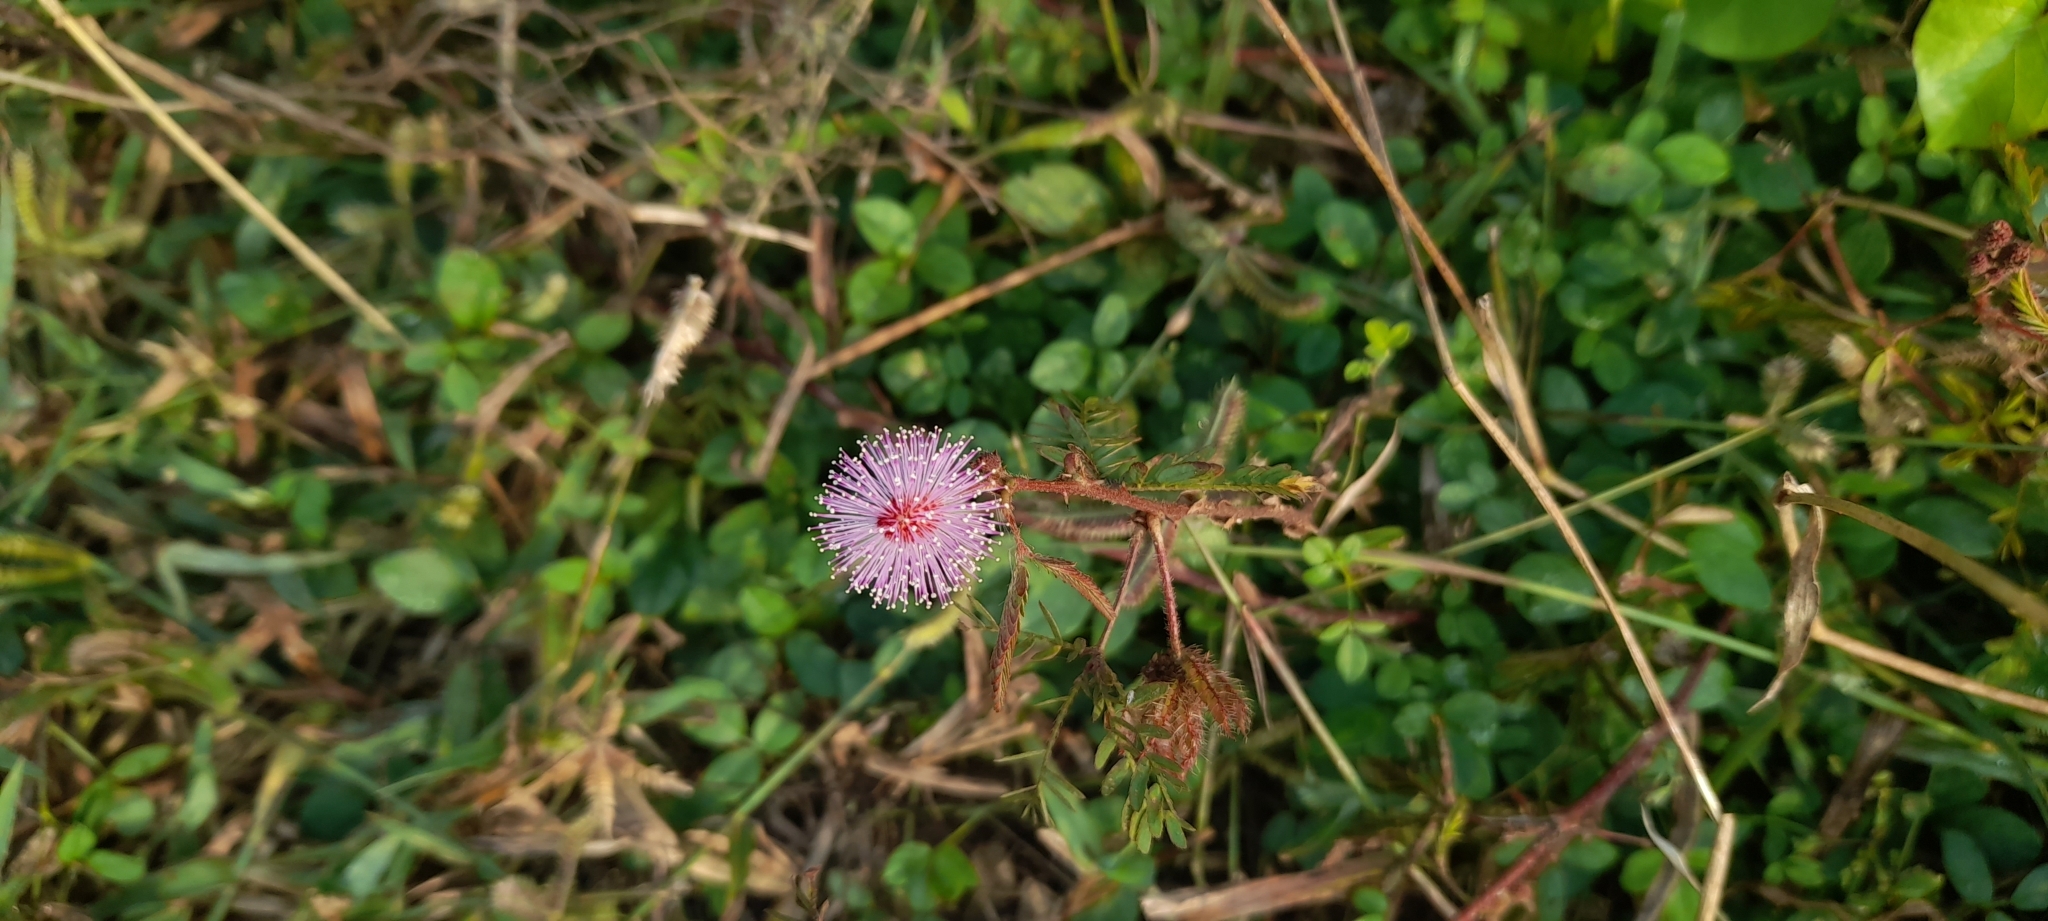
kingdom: Plantae
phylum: Tracheophyta
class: Magnoliopsida
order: Fabales
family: Fabaceae
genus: Mimosa
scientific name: Mimosa pudica
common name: Sensitive plant
